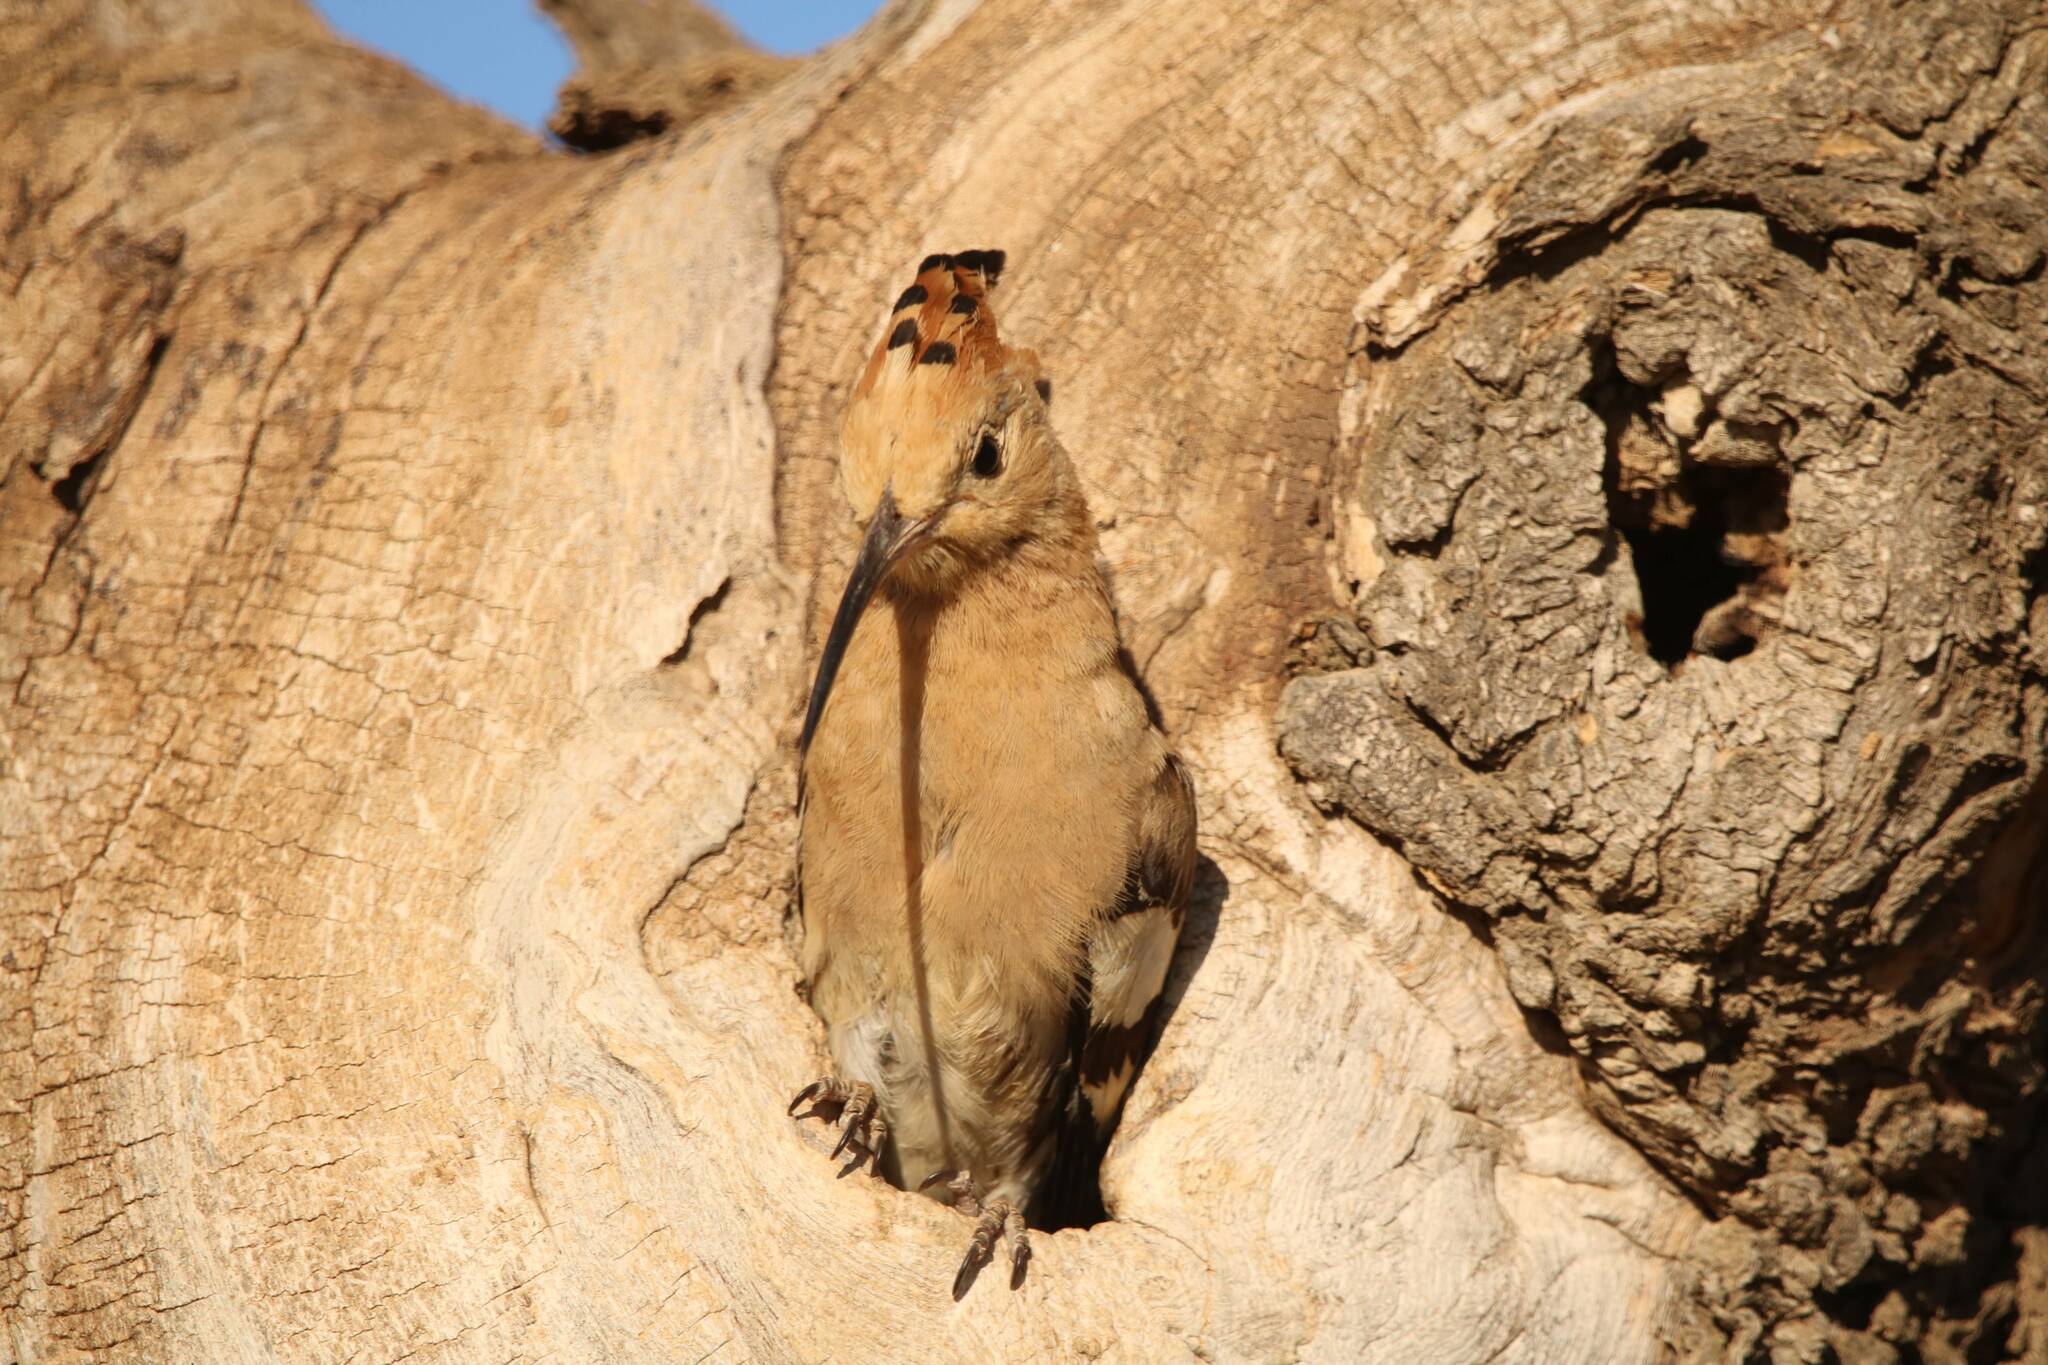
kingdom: Animalia
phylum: Chordata
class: Aves
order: Bucerotiformes
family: Upupidae
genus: Upupa
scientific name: Upupa epops
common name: Eurasian hoopoe
